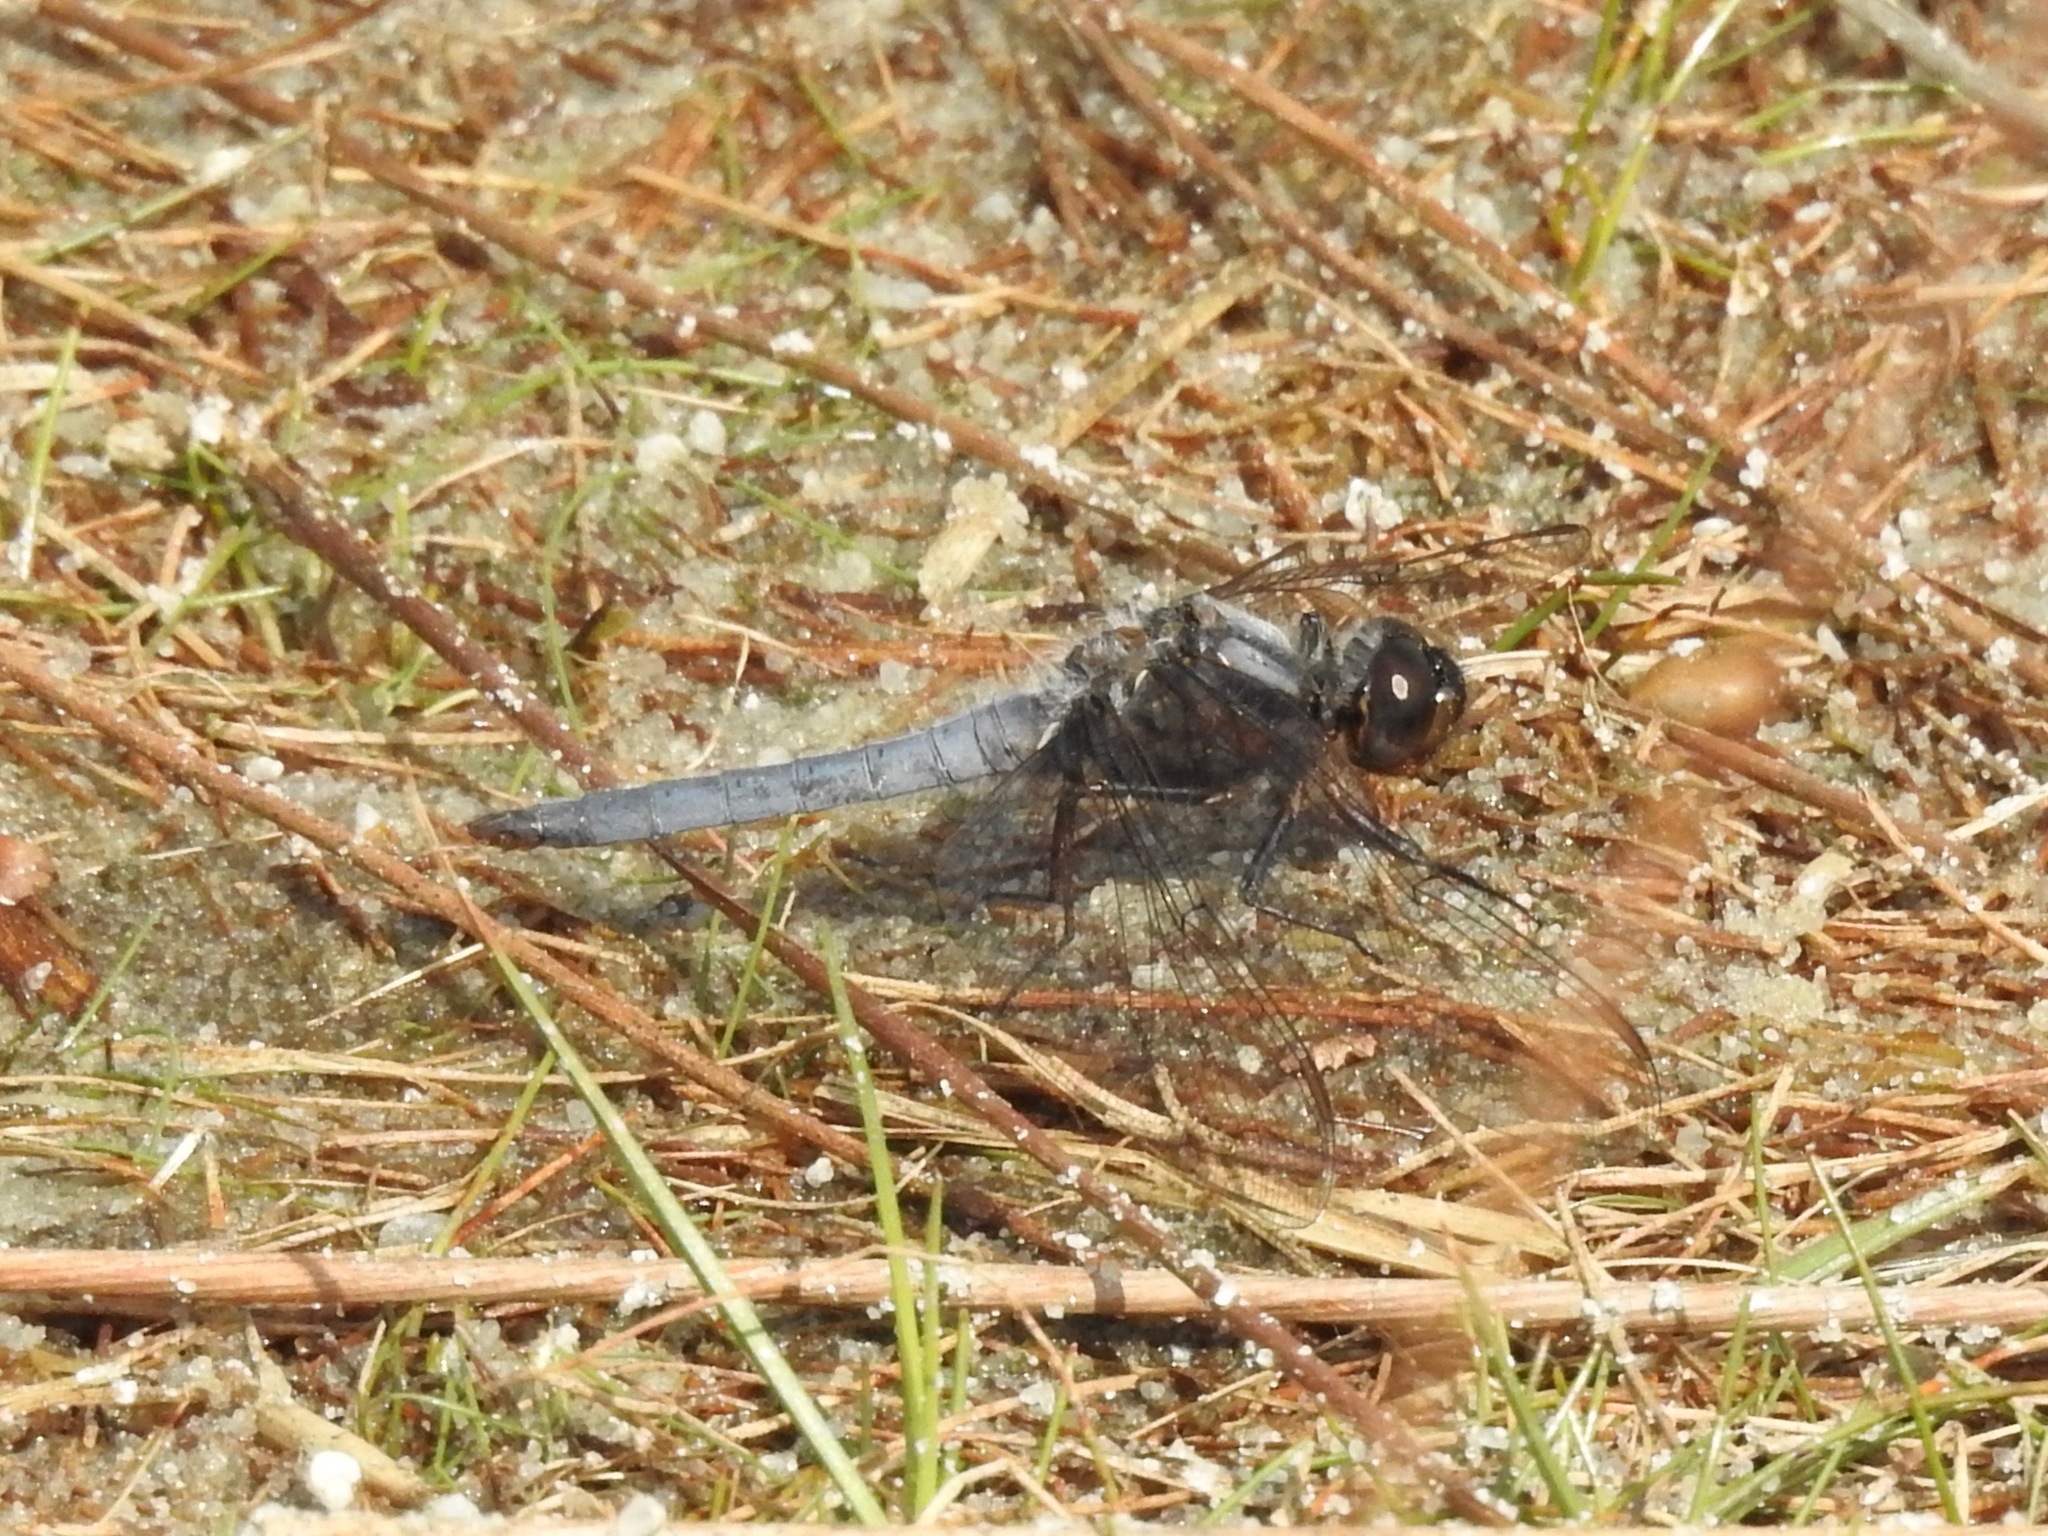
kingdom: Animalia
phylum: Arthropoda
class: Insecta
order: Odonata
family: Libellulidae
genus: Ladona
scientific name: Ladona deplanata
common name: Blue corporal
